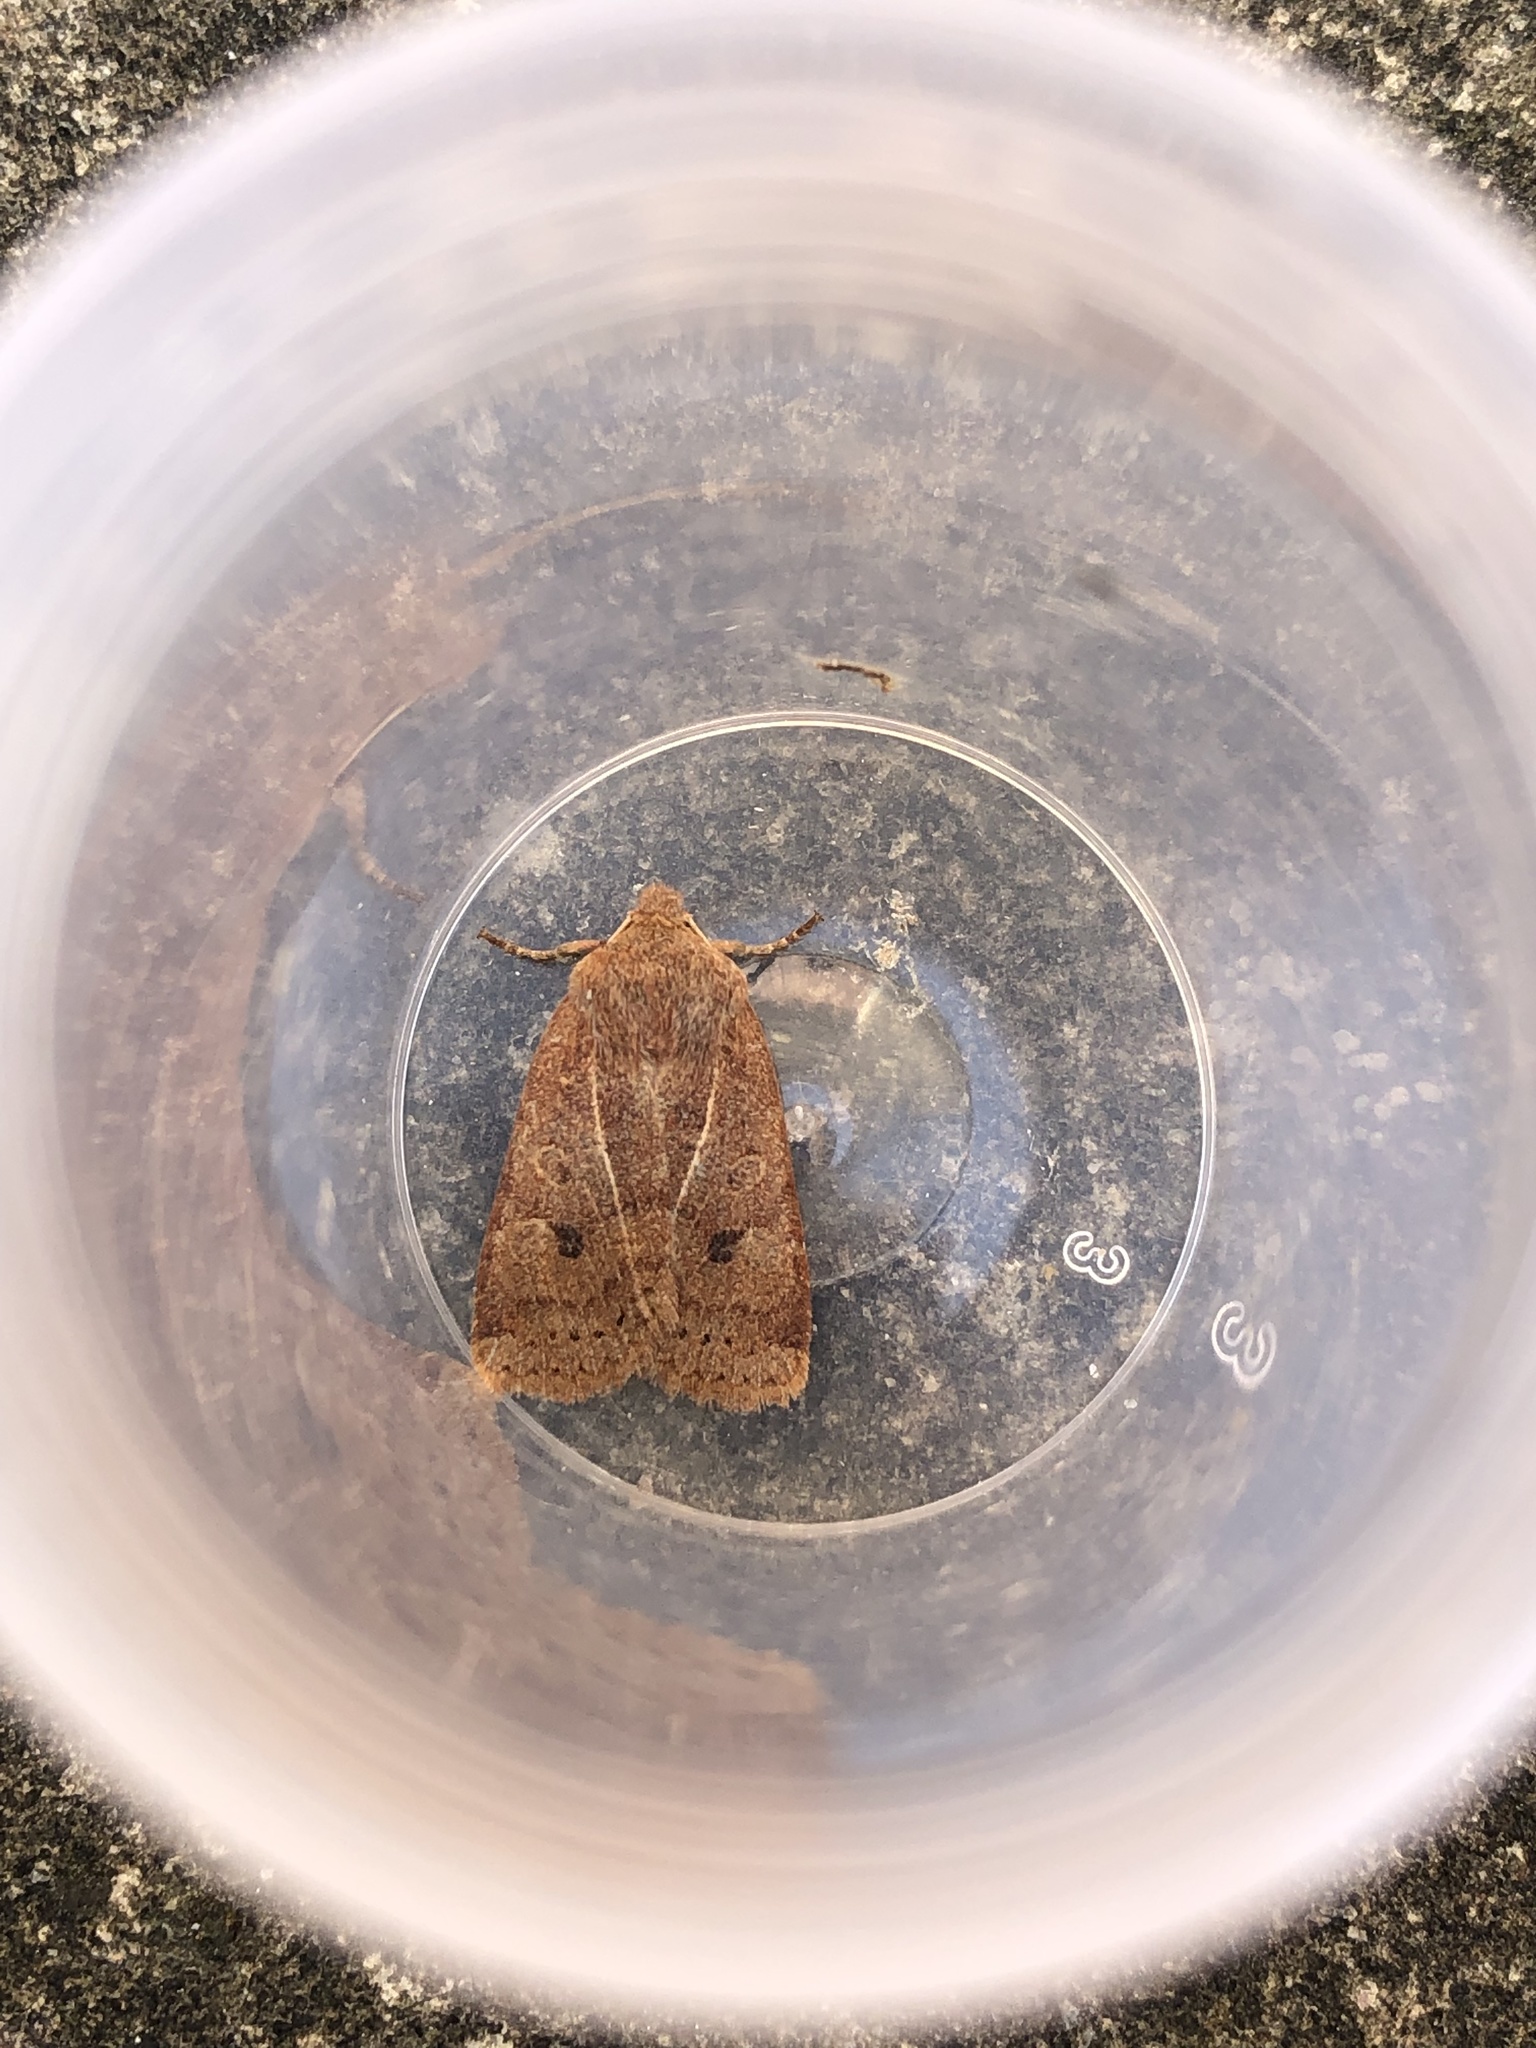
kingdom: Animalia
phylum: Arthropoda
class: Insecta
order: Lepidoptera
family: Noctuidae
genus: Conistra
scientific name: Conistra vaccinii
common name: Chestnut
